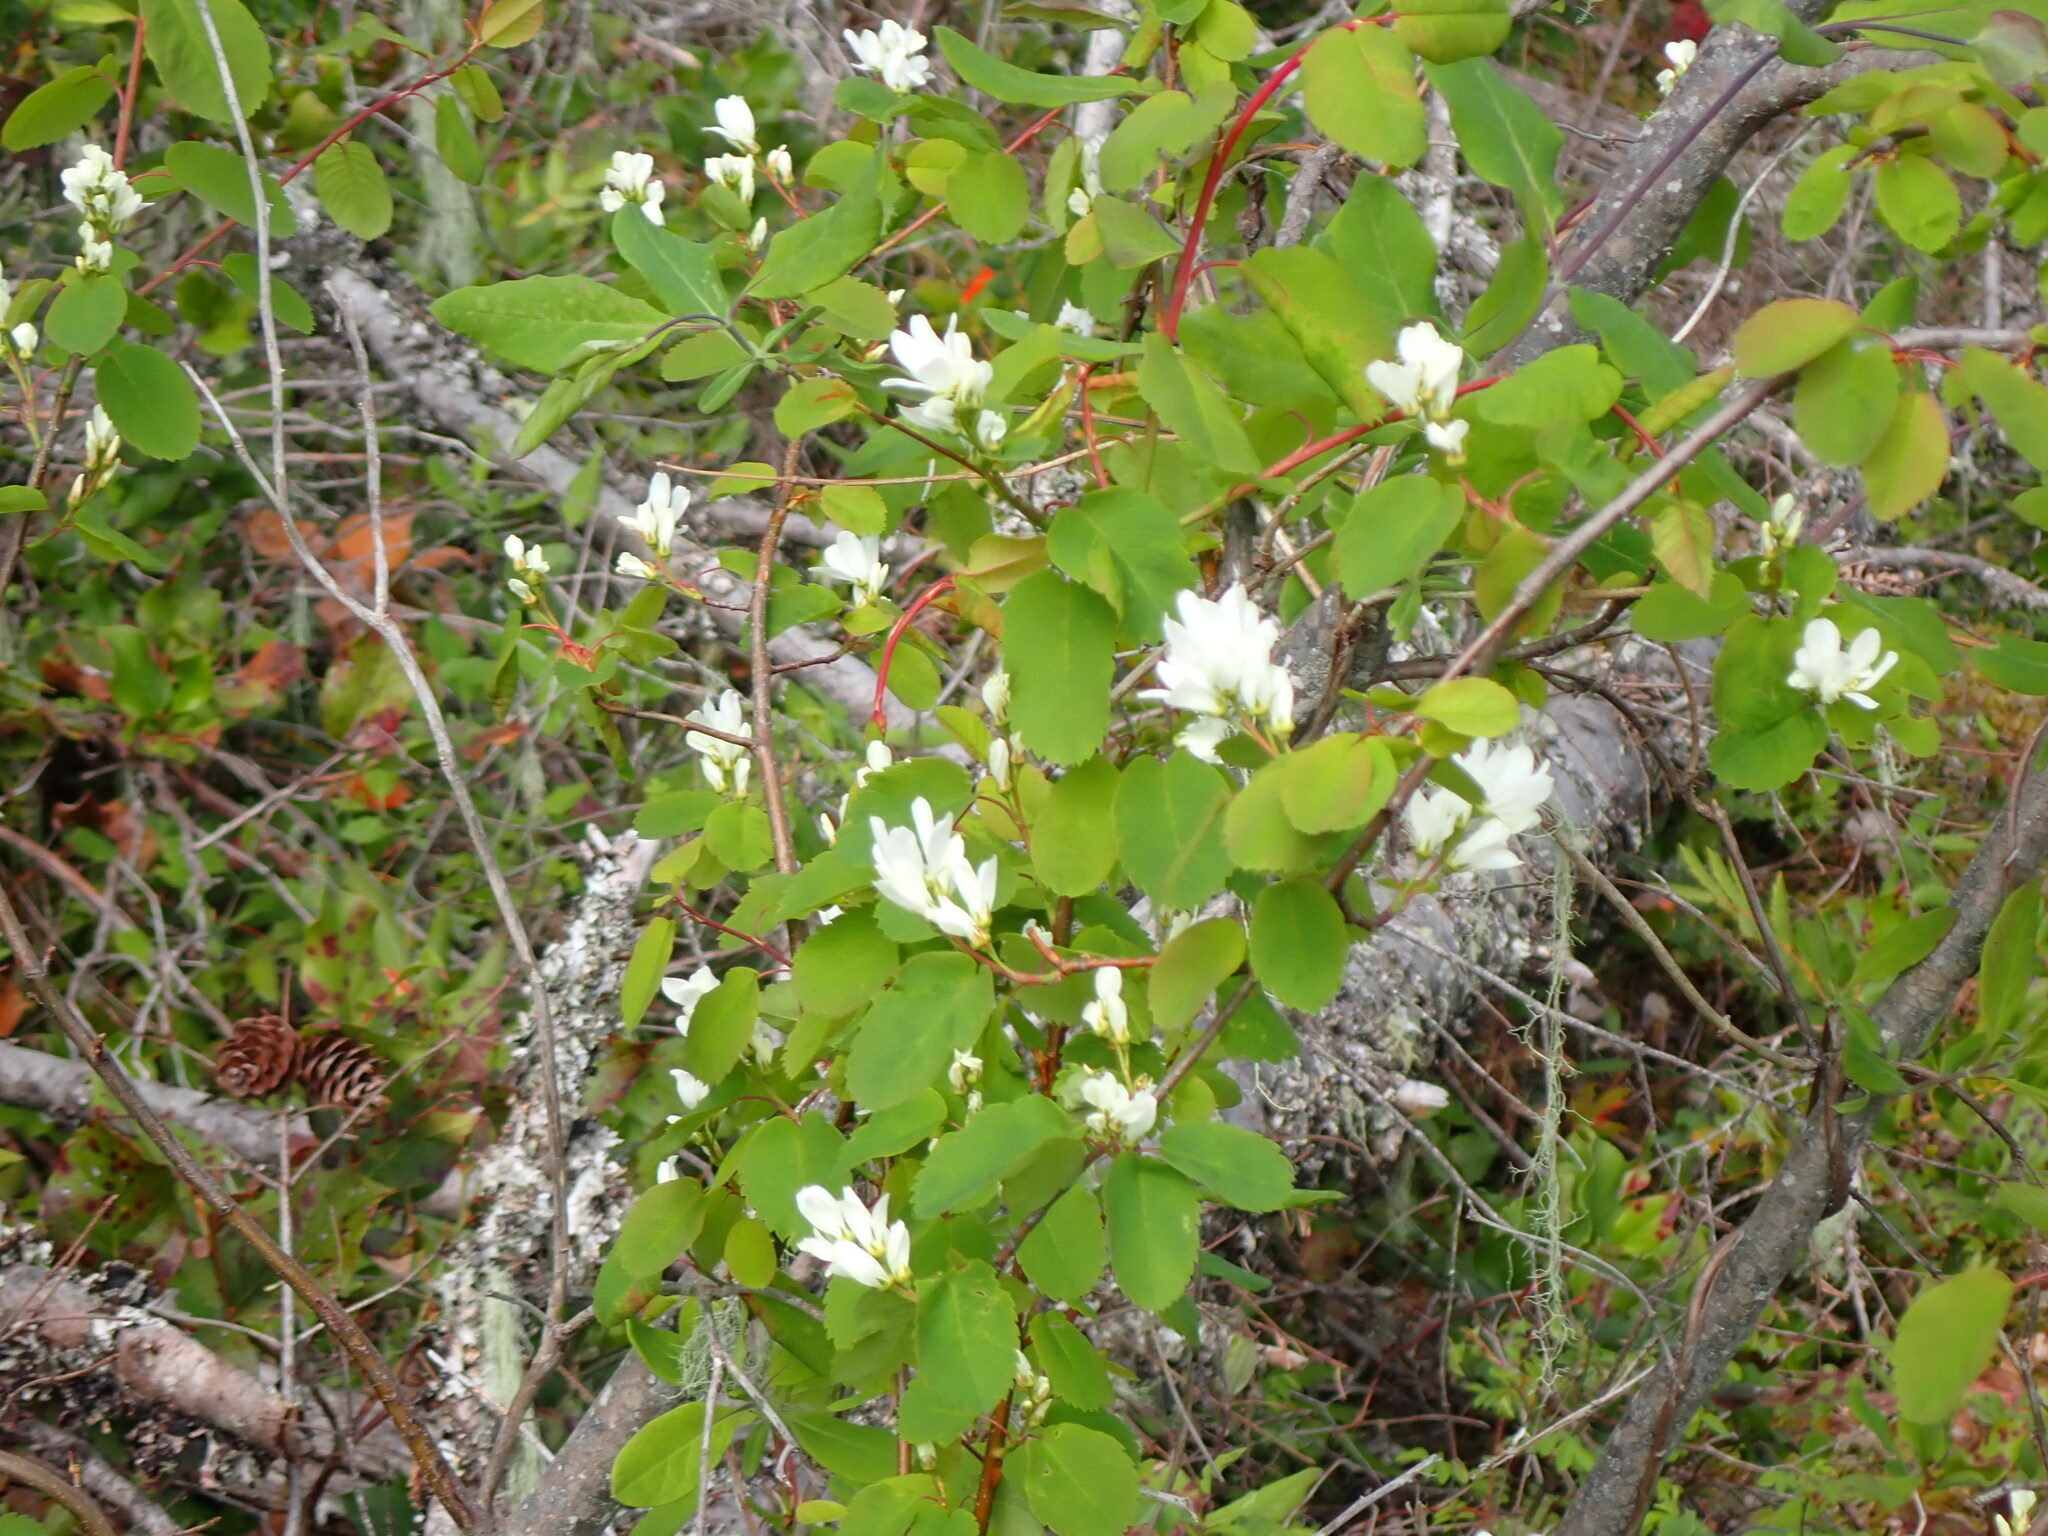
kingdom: Plantae
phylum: Tracheophyta
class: Magnoliopsida
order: Rosales
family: Rosaceae
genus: Amelanchier
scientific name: Amelanchier alnifolia
